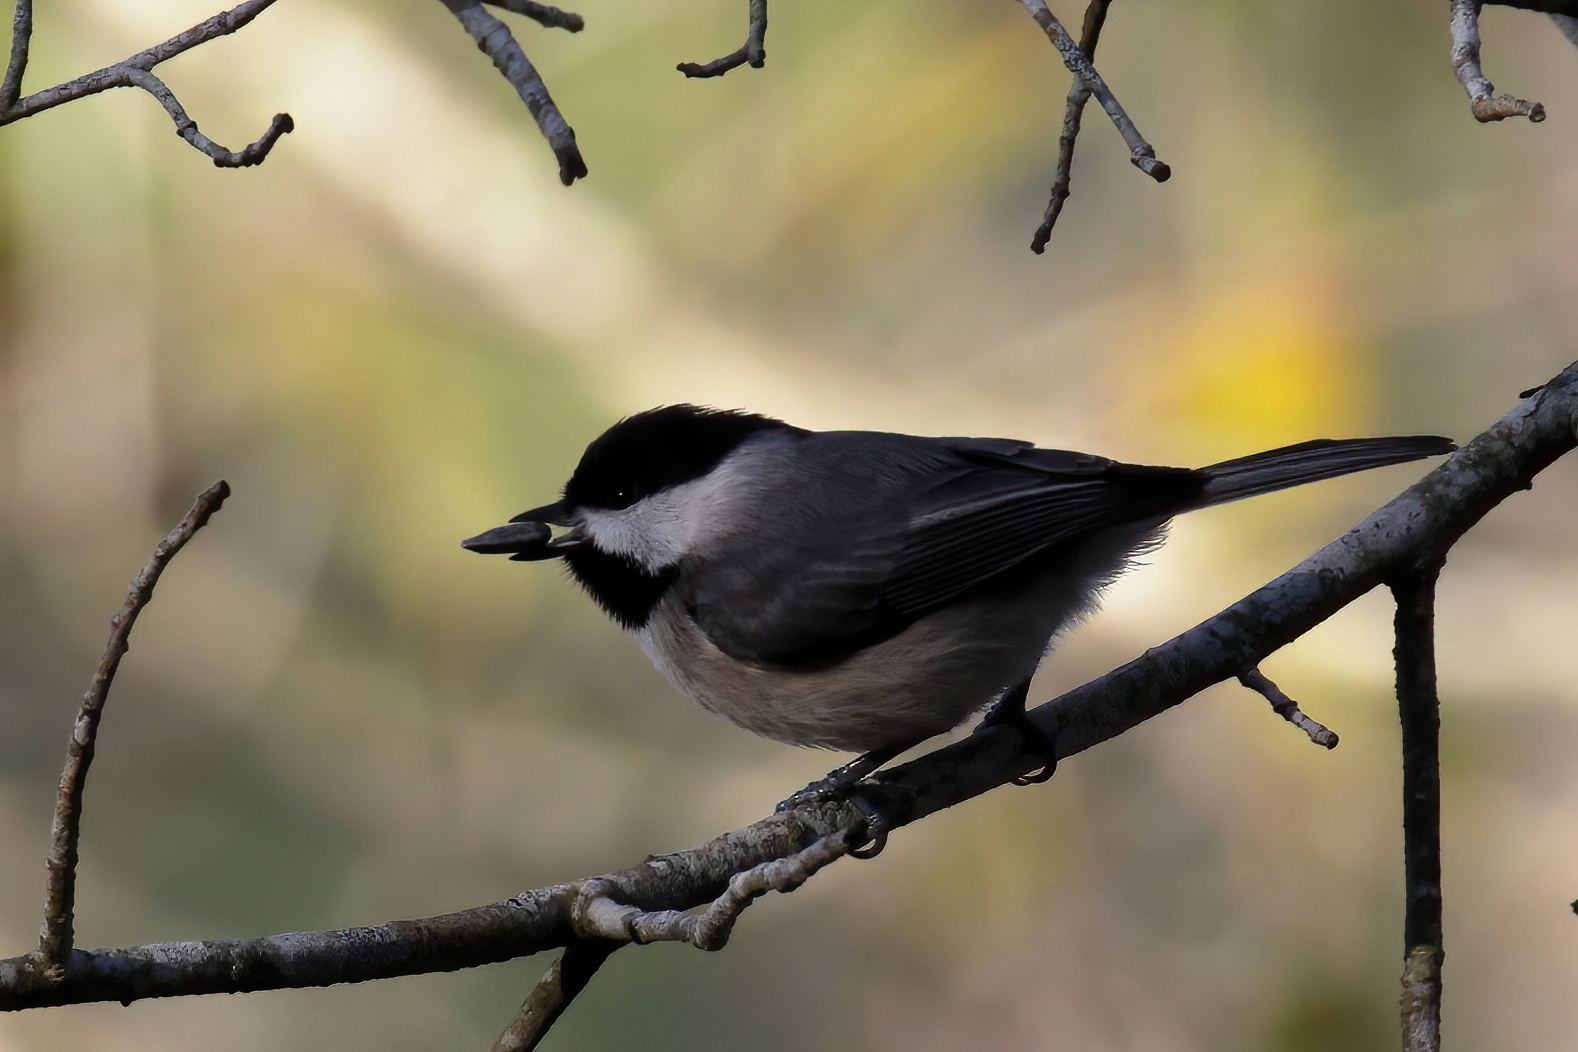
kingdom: Animalia
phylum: Chordata
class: Aves
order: Passeriformes
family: Paridae
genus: Poecile
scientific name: Poecile carolinensis
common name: Carolina chickadee
